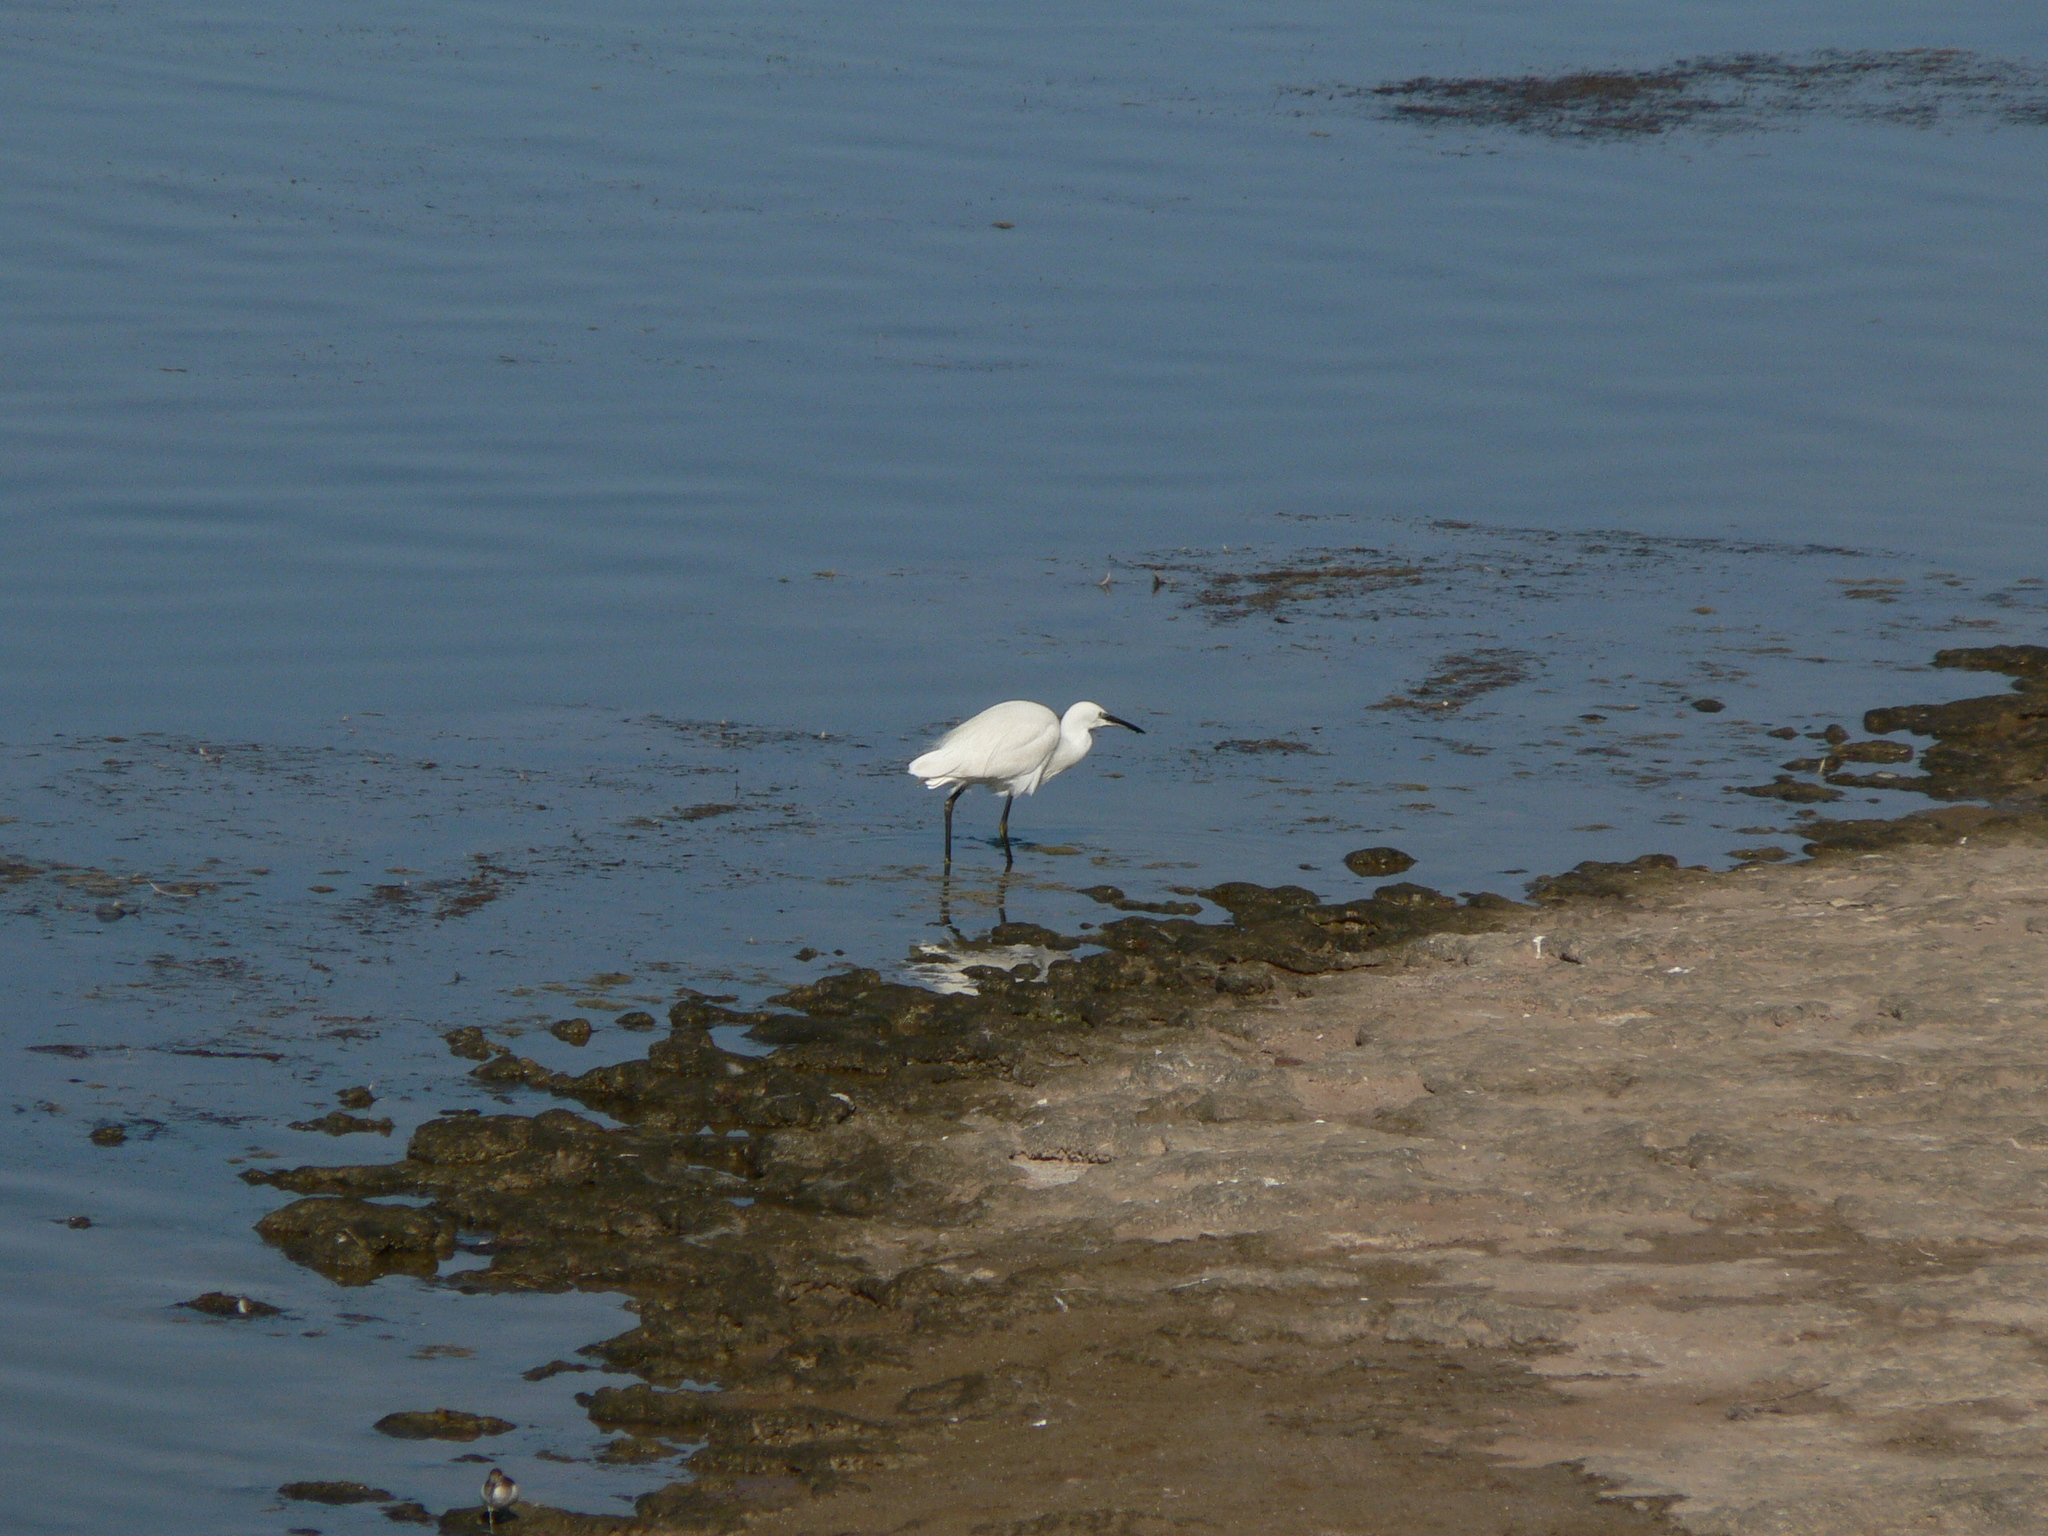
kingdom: Animalia
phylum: Chordata
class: Aves
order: Pelecaniformes
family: Ardeidae
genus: Egretta
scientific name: Egretta garzetta
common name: Little egret
